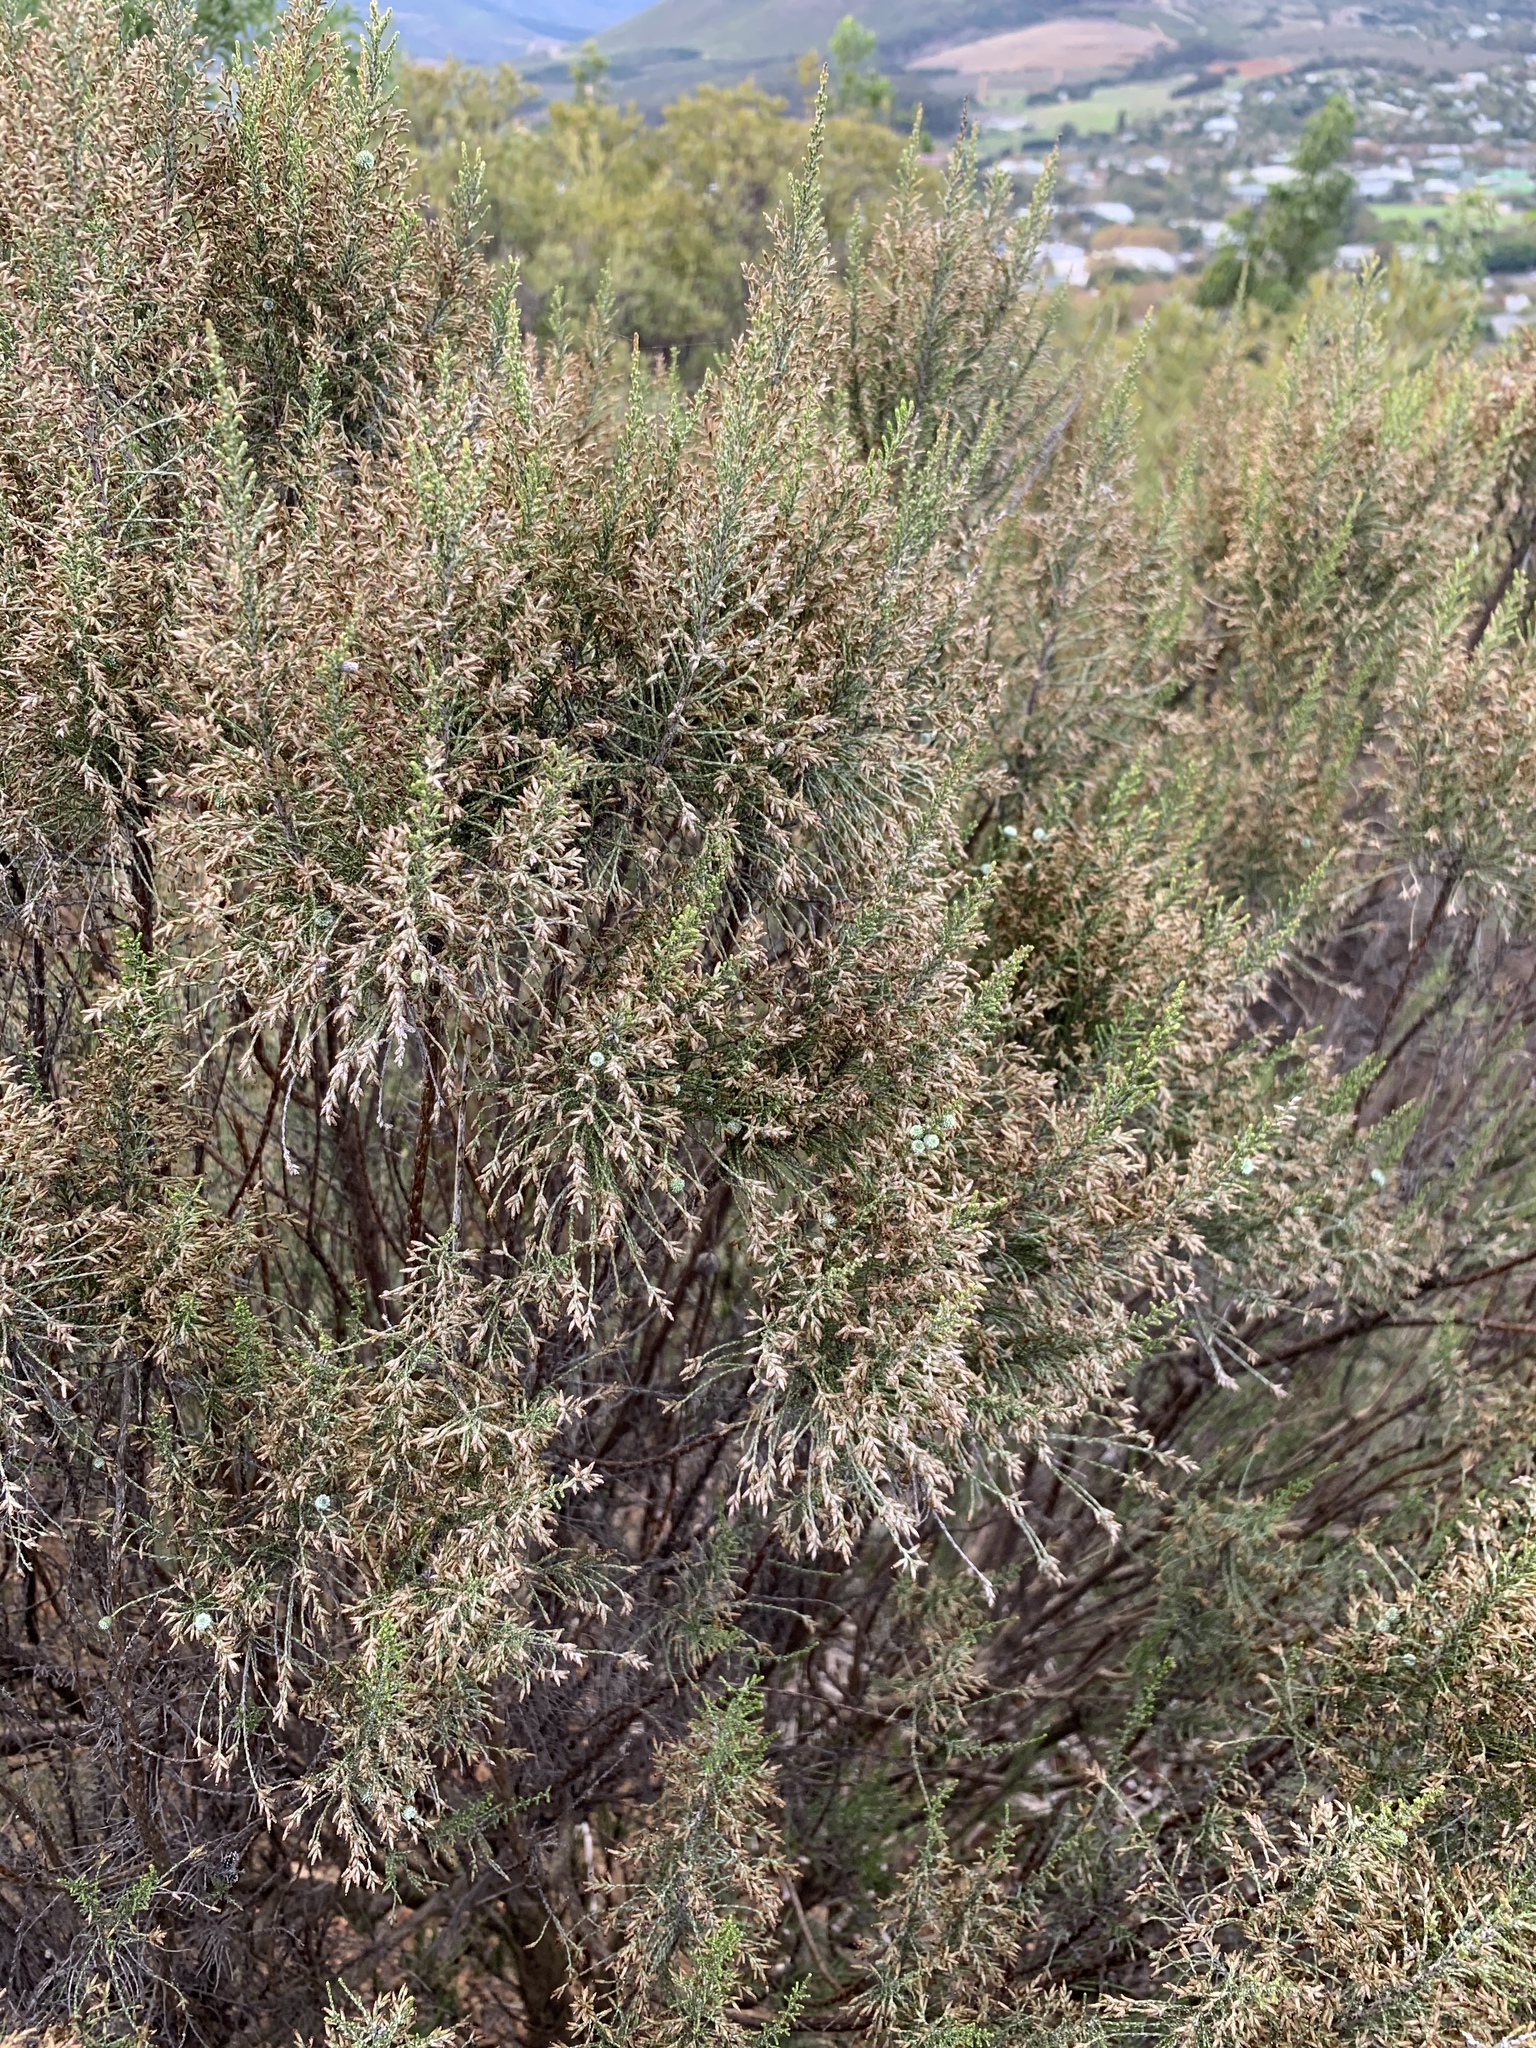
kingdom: Plantae
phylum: Tracheophyta
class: Magnoliopsida
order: Asterales
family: Asteraceae
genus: Dicerothamnus
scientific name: Dicerothamnus rhinocerotis
